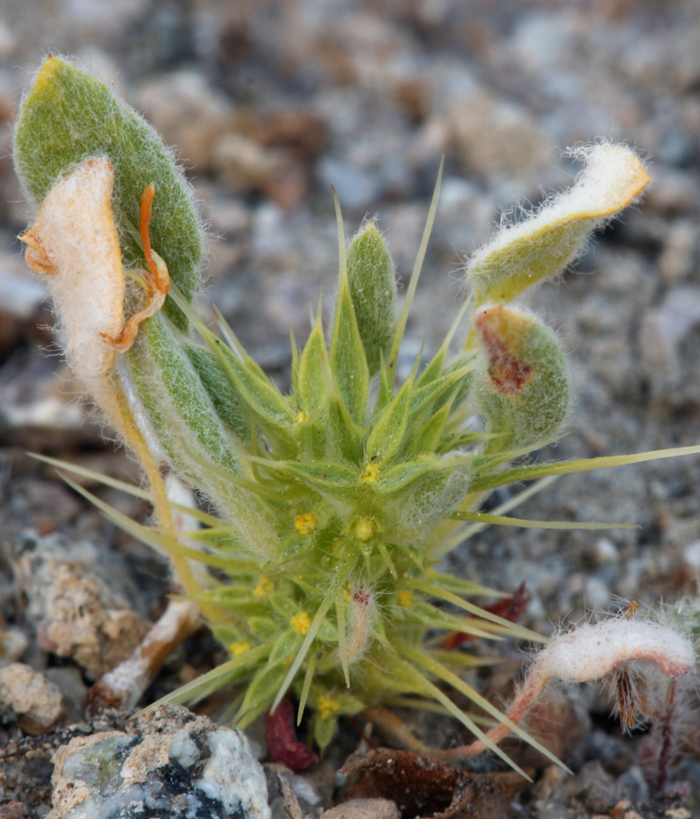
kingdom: Plantae
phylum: Tracheophyta
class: Magnoliopsida
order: Caryophyllales
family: Polygonaceae
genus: Chorizanthe
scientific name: Chorizanthe rigida
